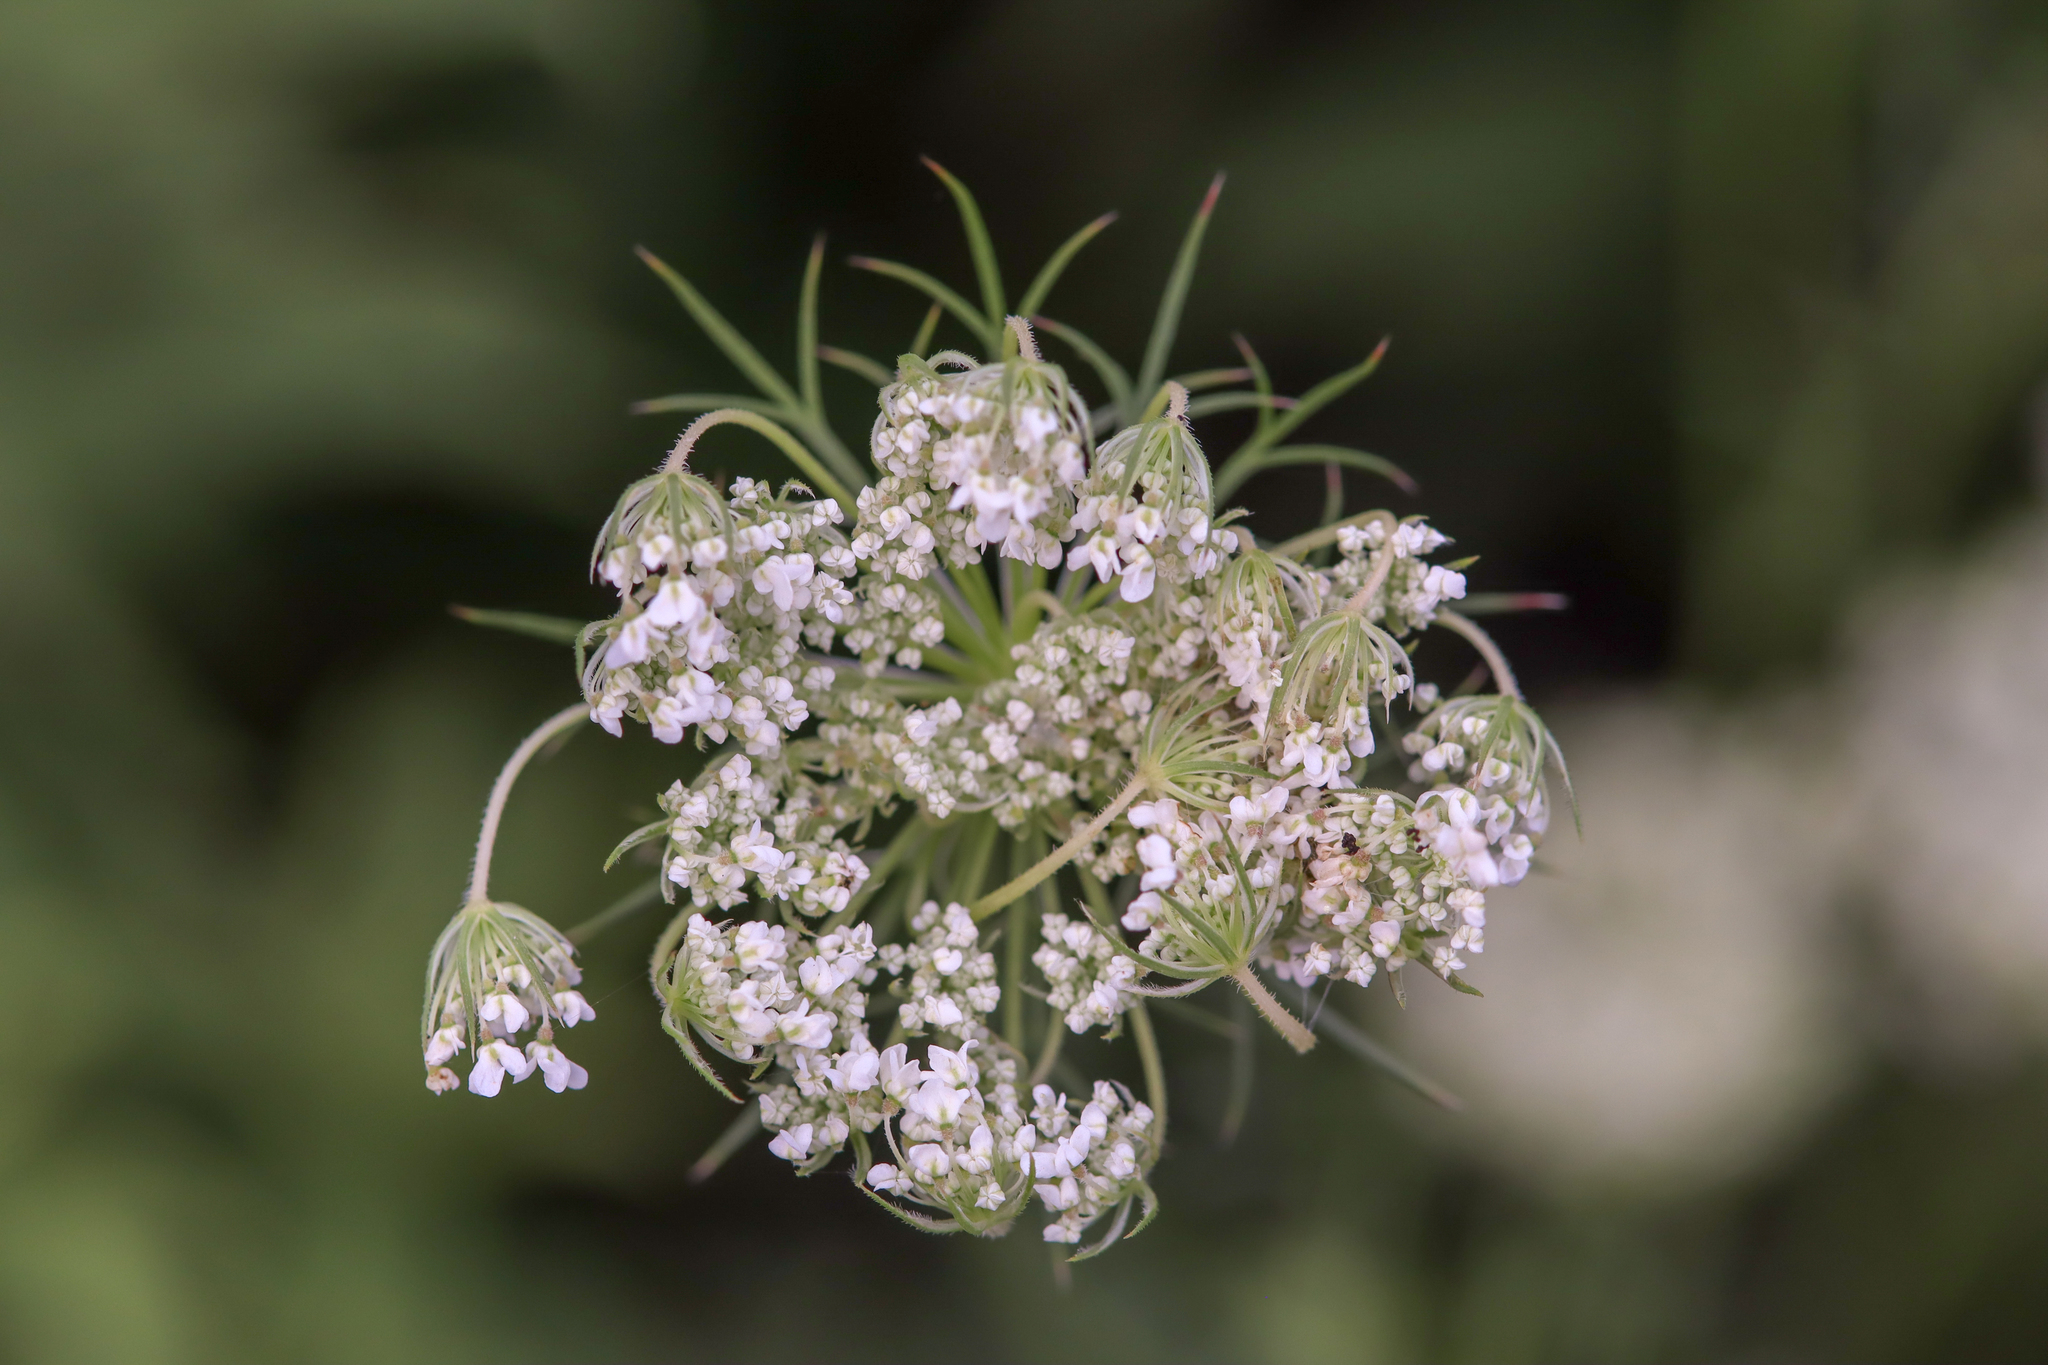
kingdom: Plantae
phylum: Tracheophyta
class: Magnoliopsida
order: Apiales
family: Apiaceae
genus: Daucus
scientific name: Daucus carota
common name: Wild carrot
